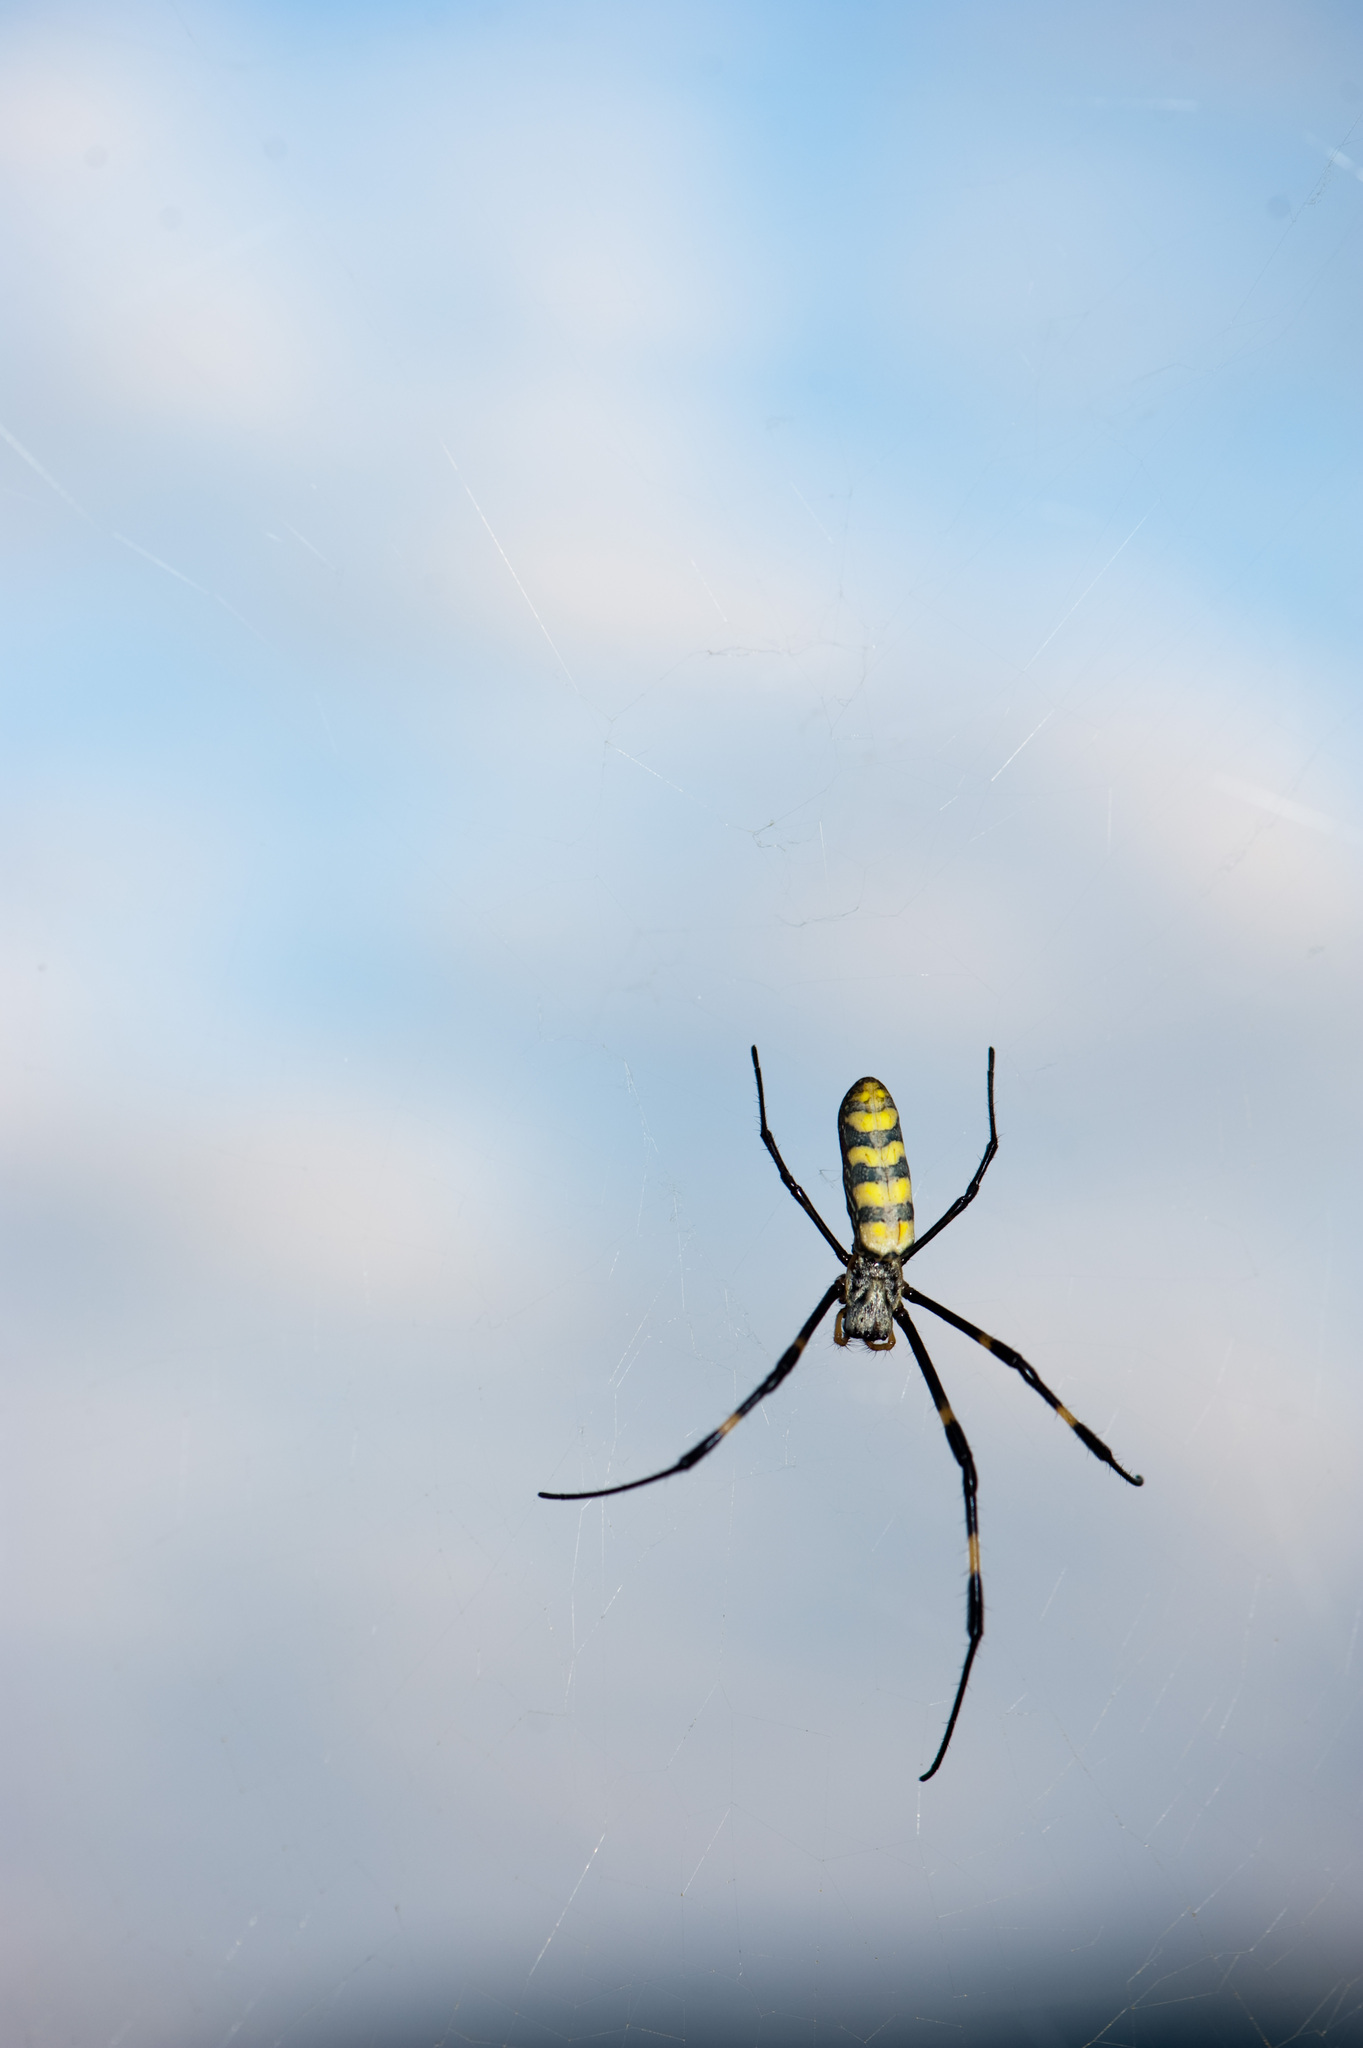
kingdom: Animalia
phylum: Arthropoda
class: Arachnida
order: Araneae
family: Araneidae
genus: Trichonephila
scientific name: Trichonephila clavata
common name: Jorō spider
